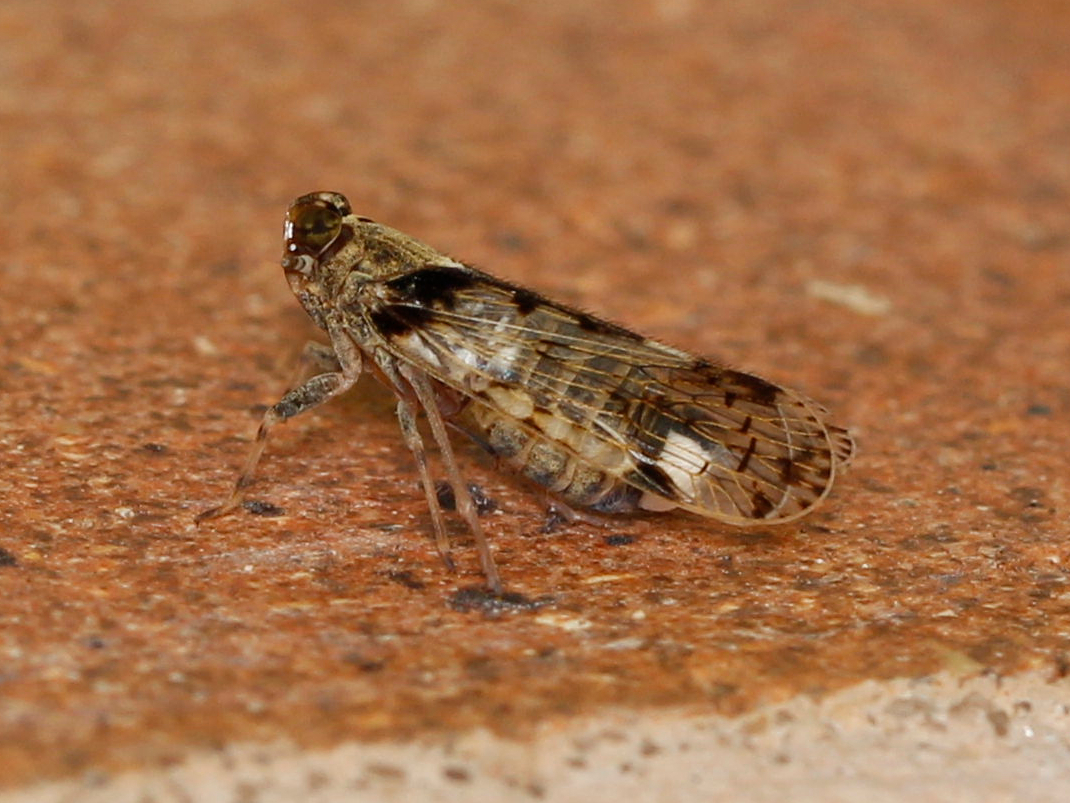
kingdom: Animalia
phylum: Arthropoda
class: Insecta
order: Hemiptera
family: Cixiidae
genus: Melanoliarus
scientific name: Melanoliarus placitus
